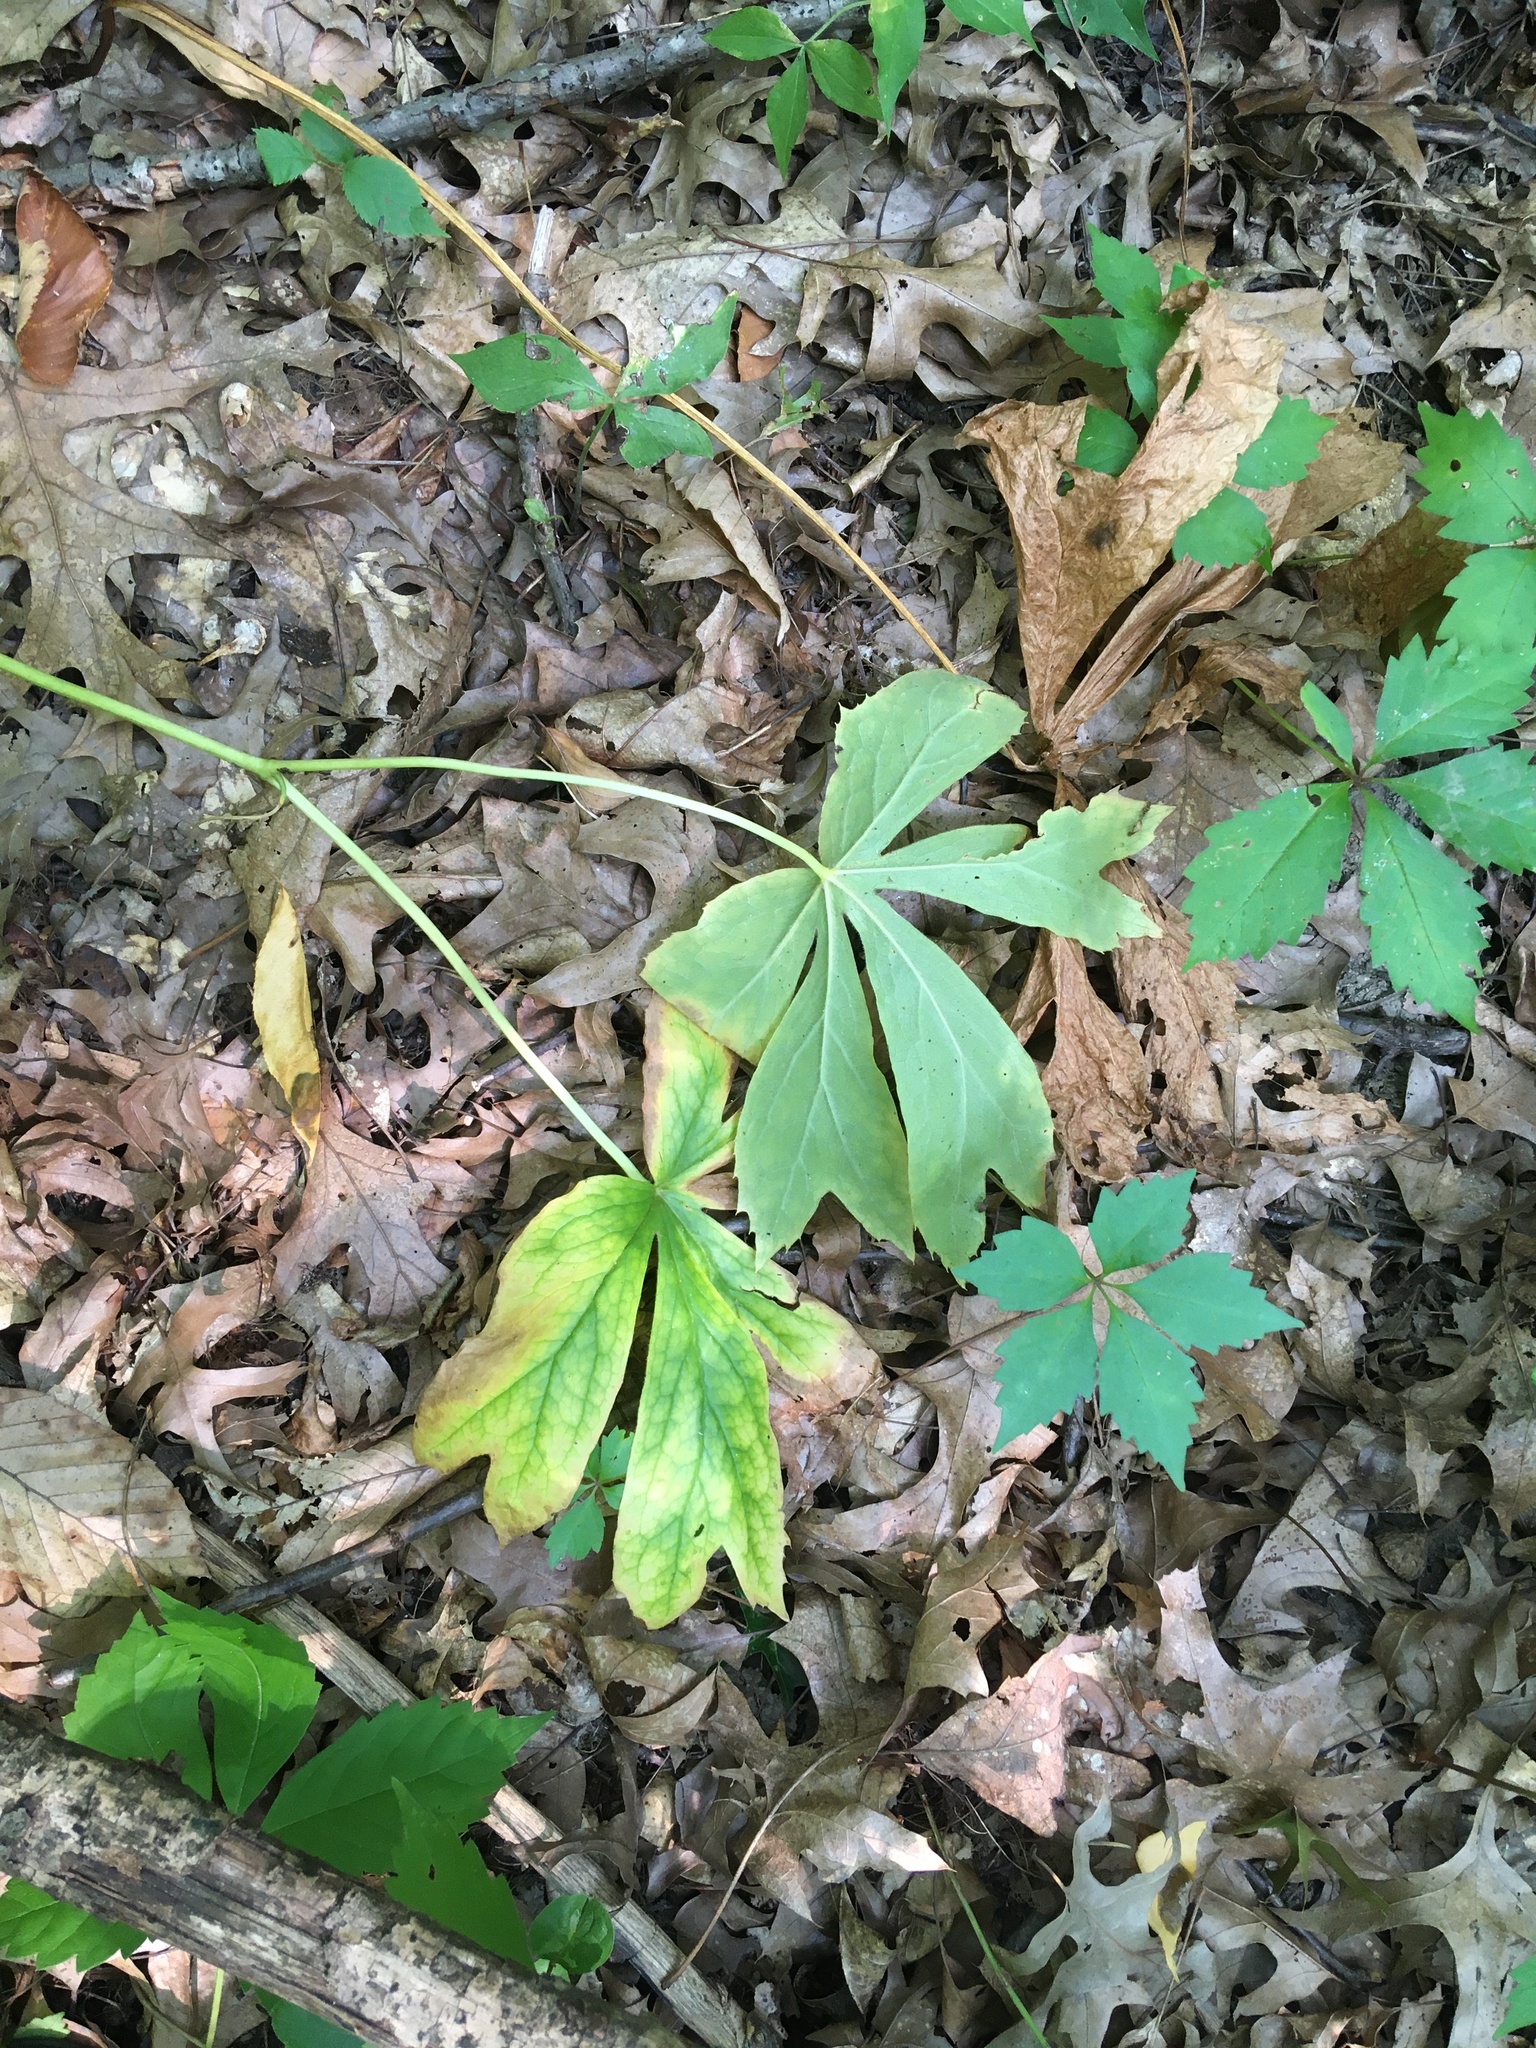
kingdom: Plantae
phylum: Tracheophyta
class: Magnoliopsida
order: Ranunculales
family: Berberidaceae
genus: Podophyllum
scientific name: Podophyllum peltatum
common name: Wild mandrake
